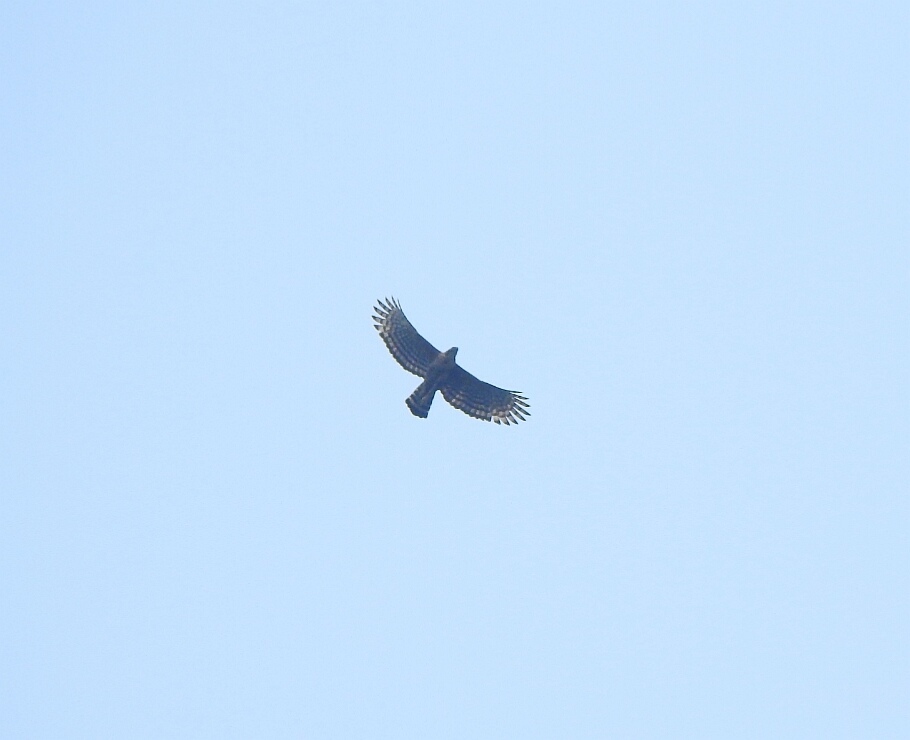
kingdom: Animalia
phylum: Chordata
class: Aves
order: Accipitriformes
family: Accipitridae
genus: Nisaetus
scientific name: Nisaetus kelaarti
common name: Legge's hawk-eagle
